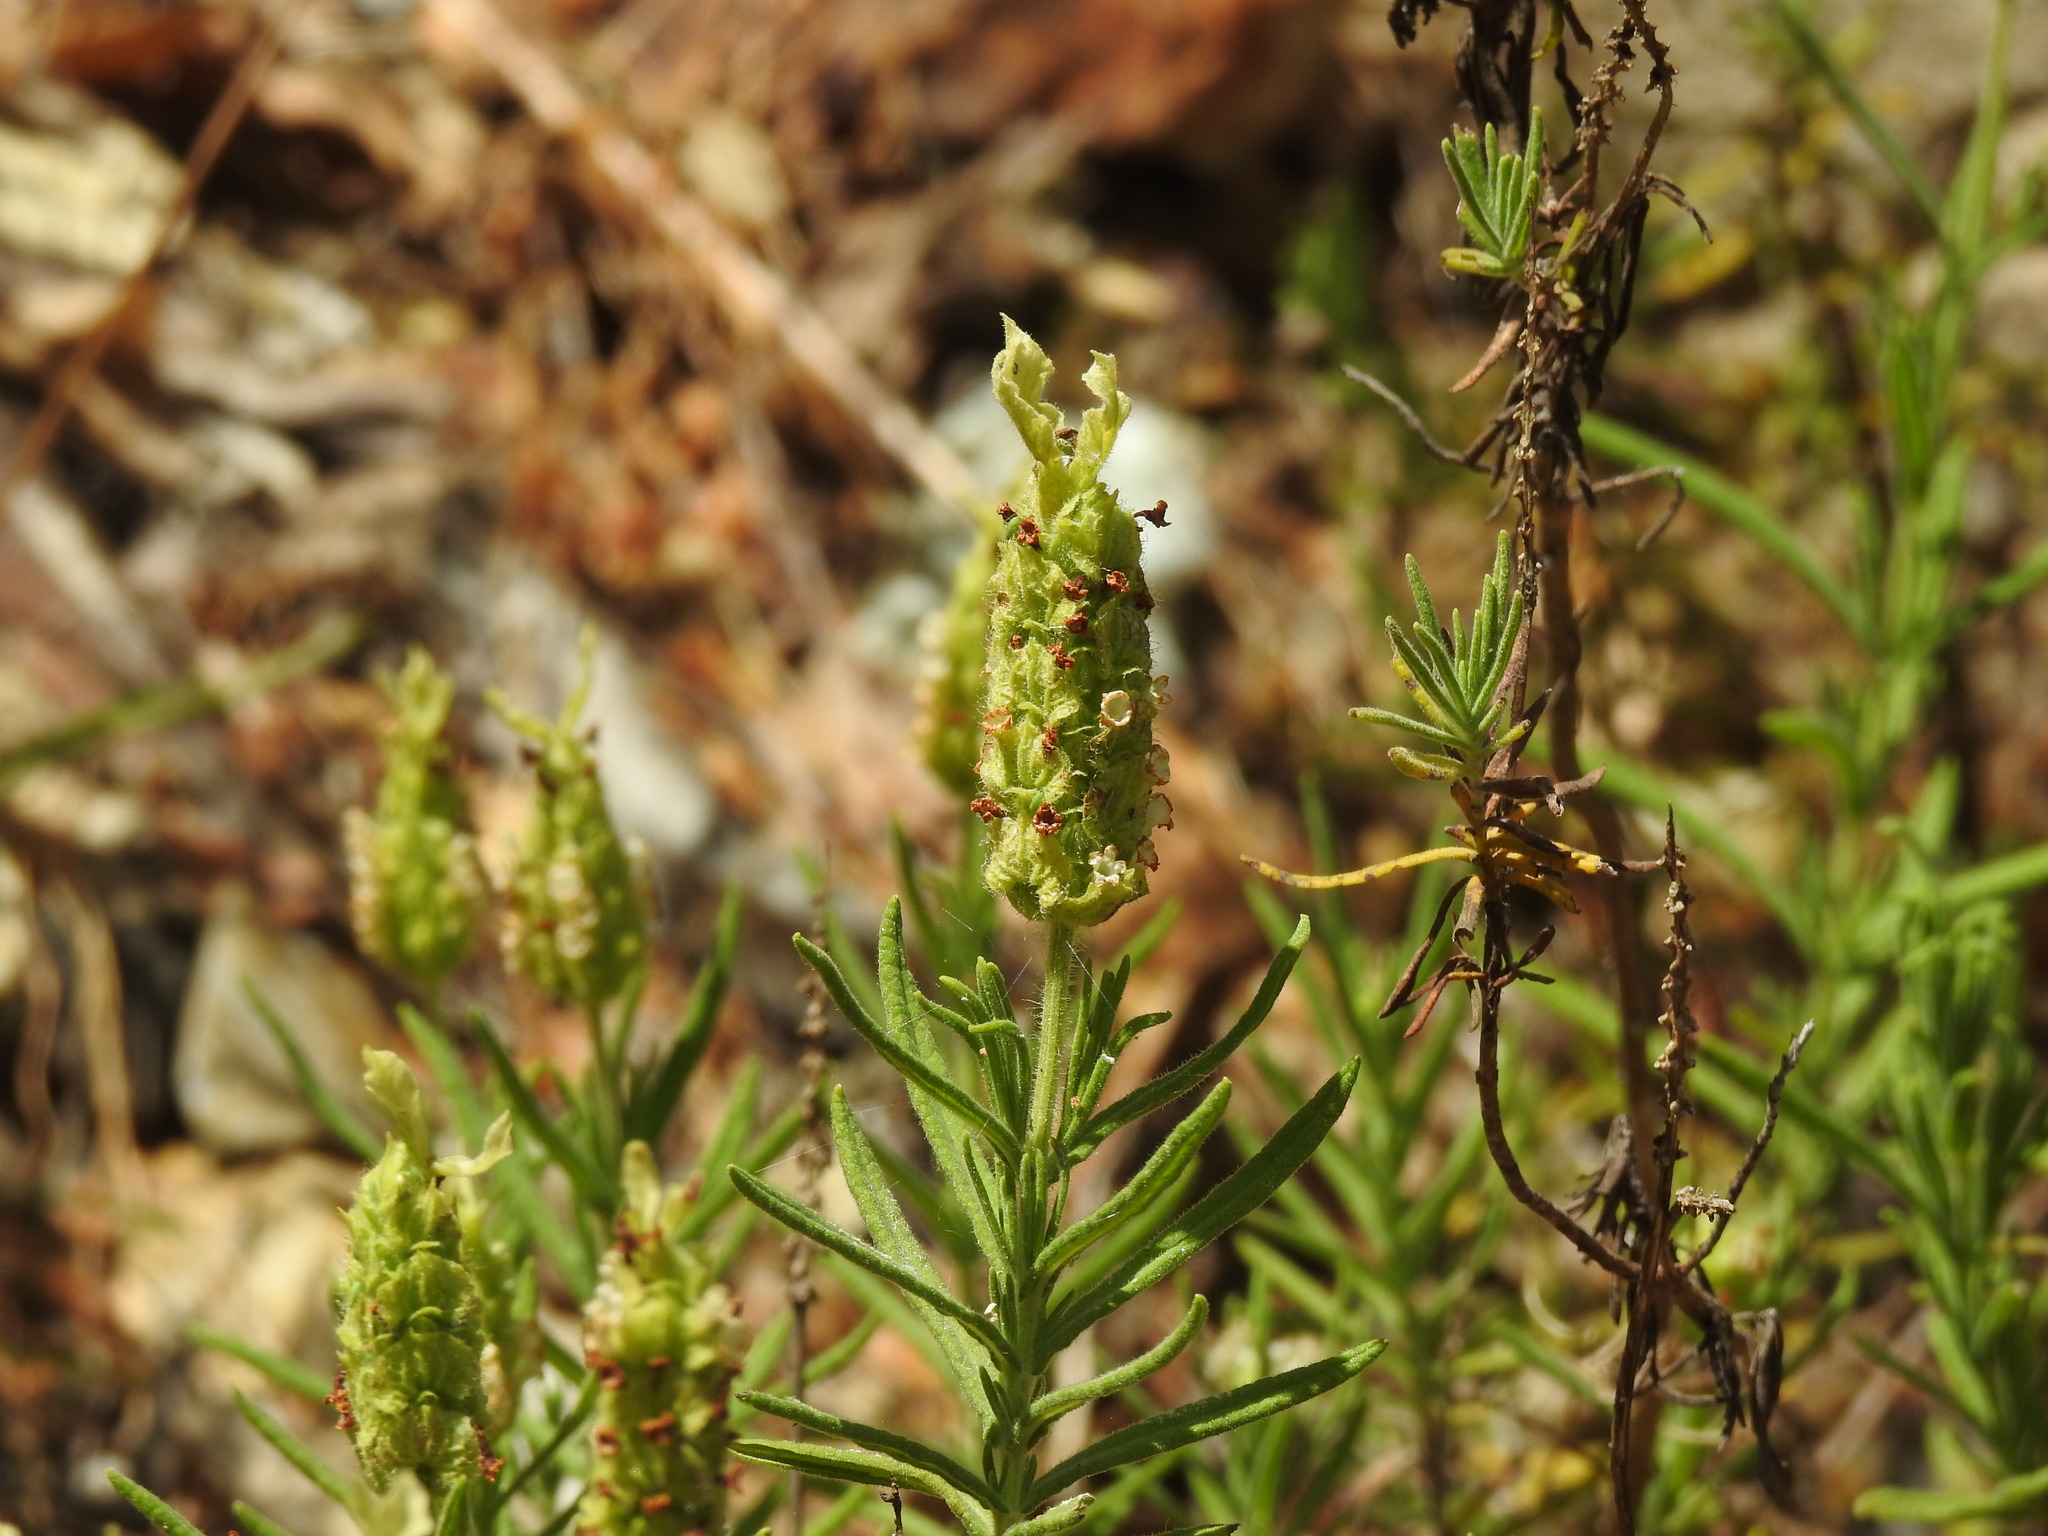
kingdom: Plantae
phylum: Tracheophyta
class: Magnoliopsida
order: Lamiales
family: Lamiaceae
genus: Lavandula
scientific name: Lavandula viridis
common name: Green spanish lavender
